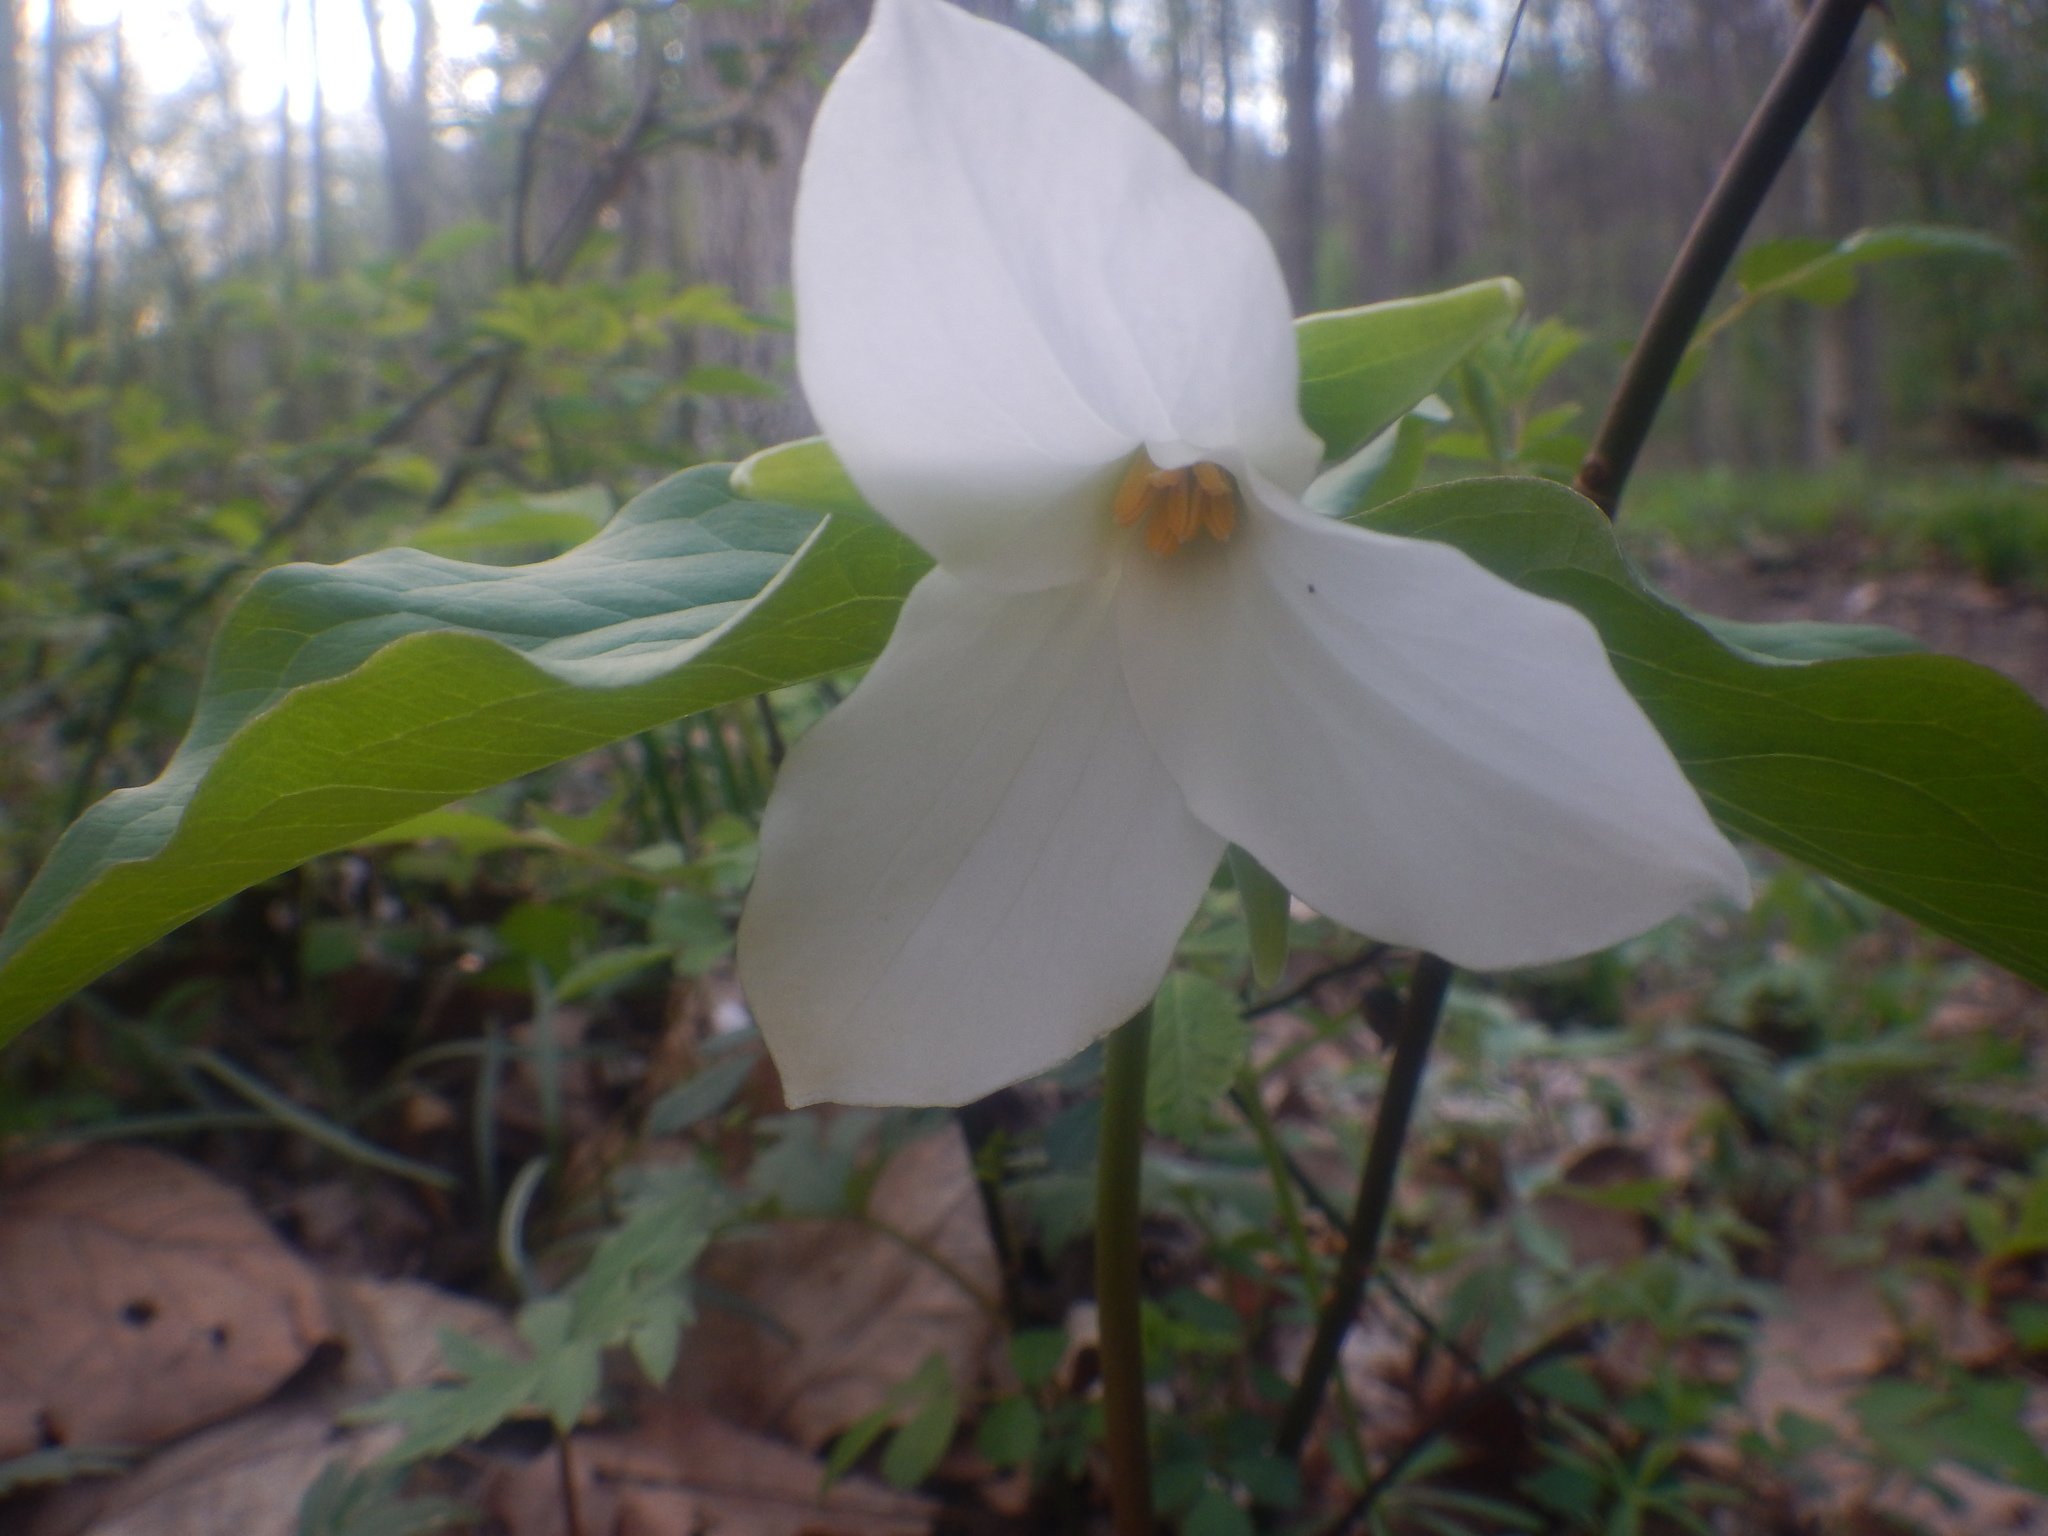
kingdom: Plantae
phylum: Tracheophyta
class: Liliopsida
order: Liliales
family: Melanthiaceae
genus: Trillium
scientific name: Trillium grandiflorum
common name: Great white trillium
